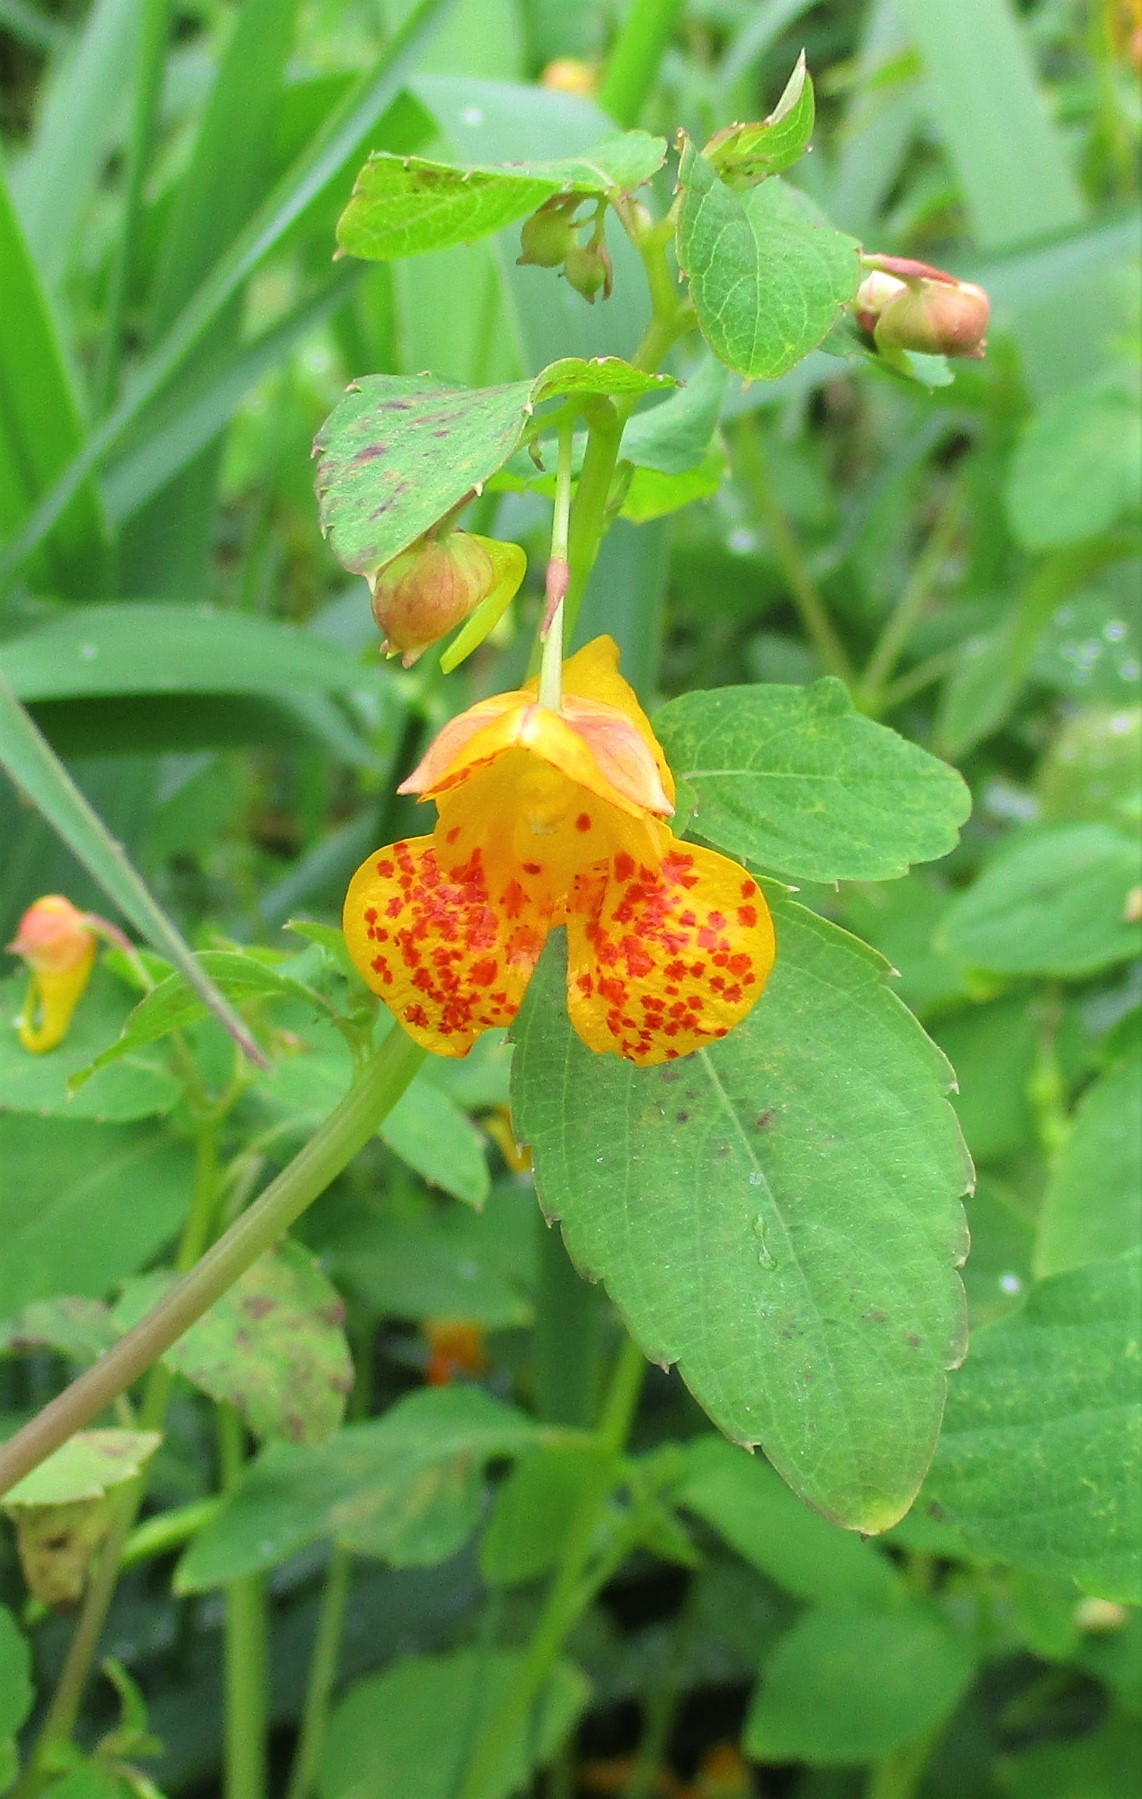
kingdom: Plantae
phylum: Tracheophyta
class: Magnoliopsida
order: Ericales
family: Balsaminaceae
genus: Impatiens
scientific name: Impatiens capensis
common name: Orange balsam
